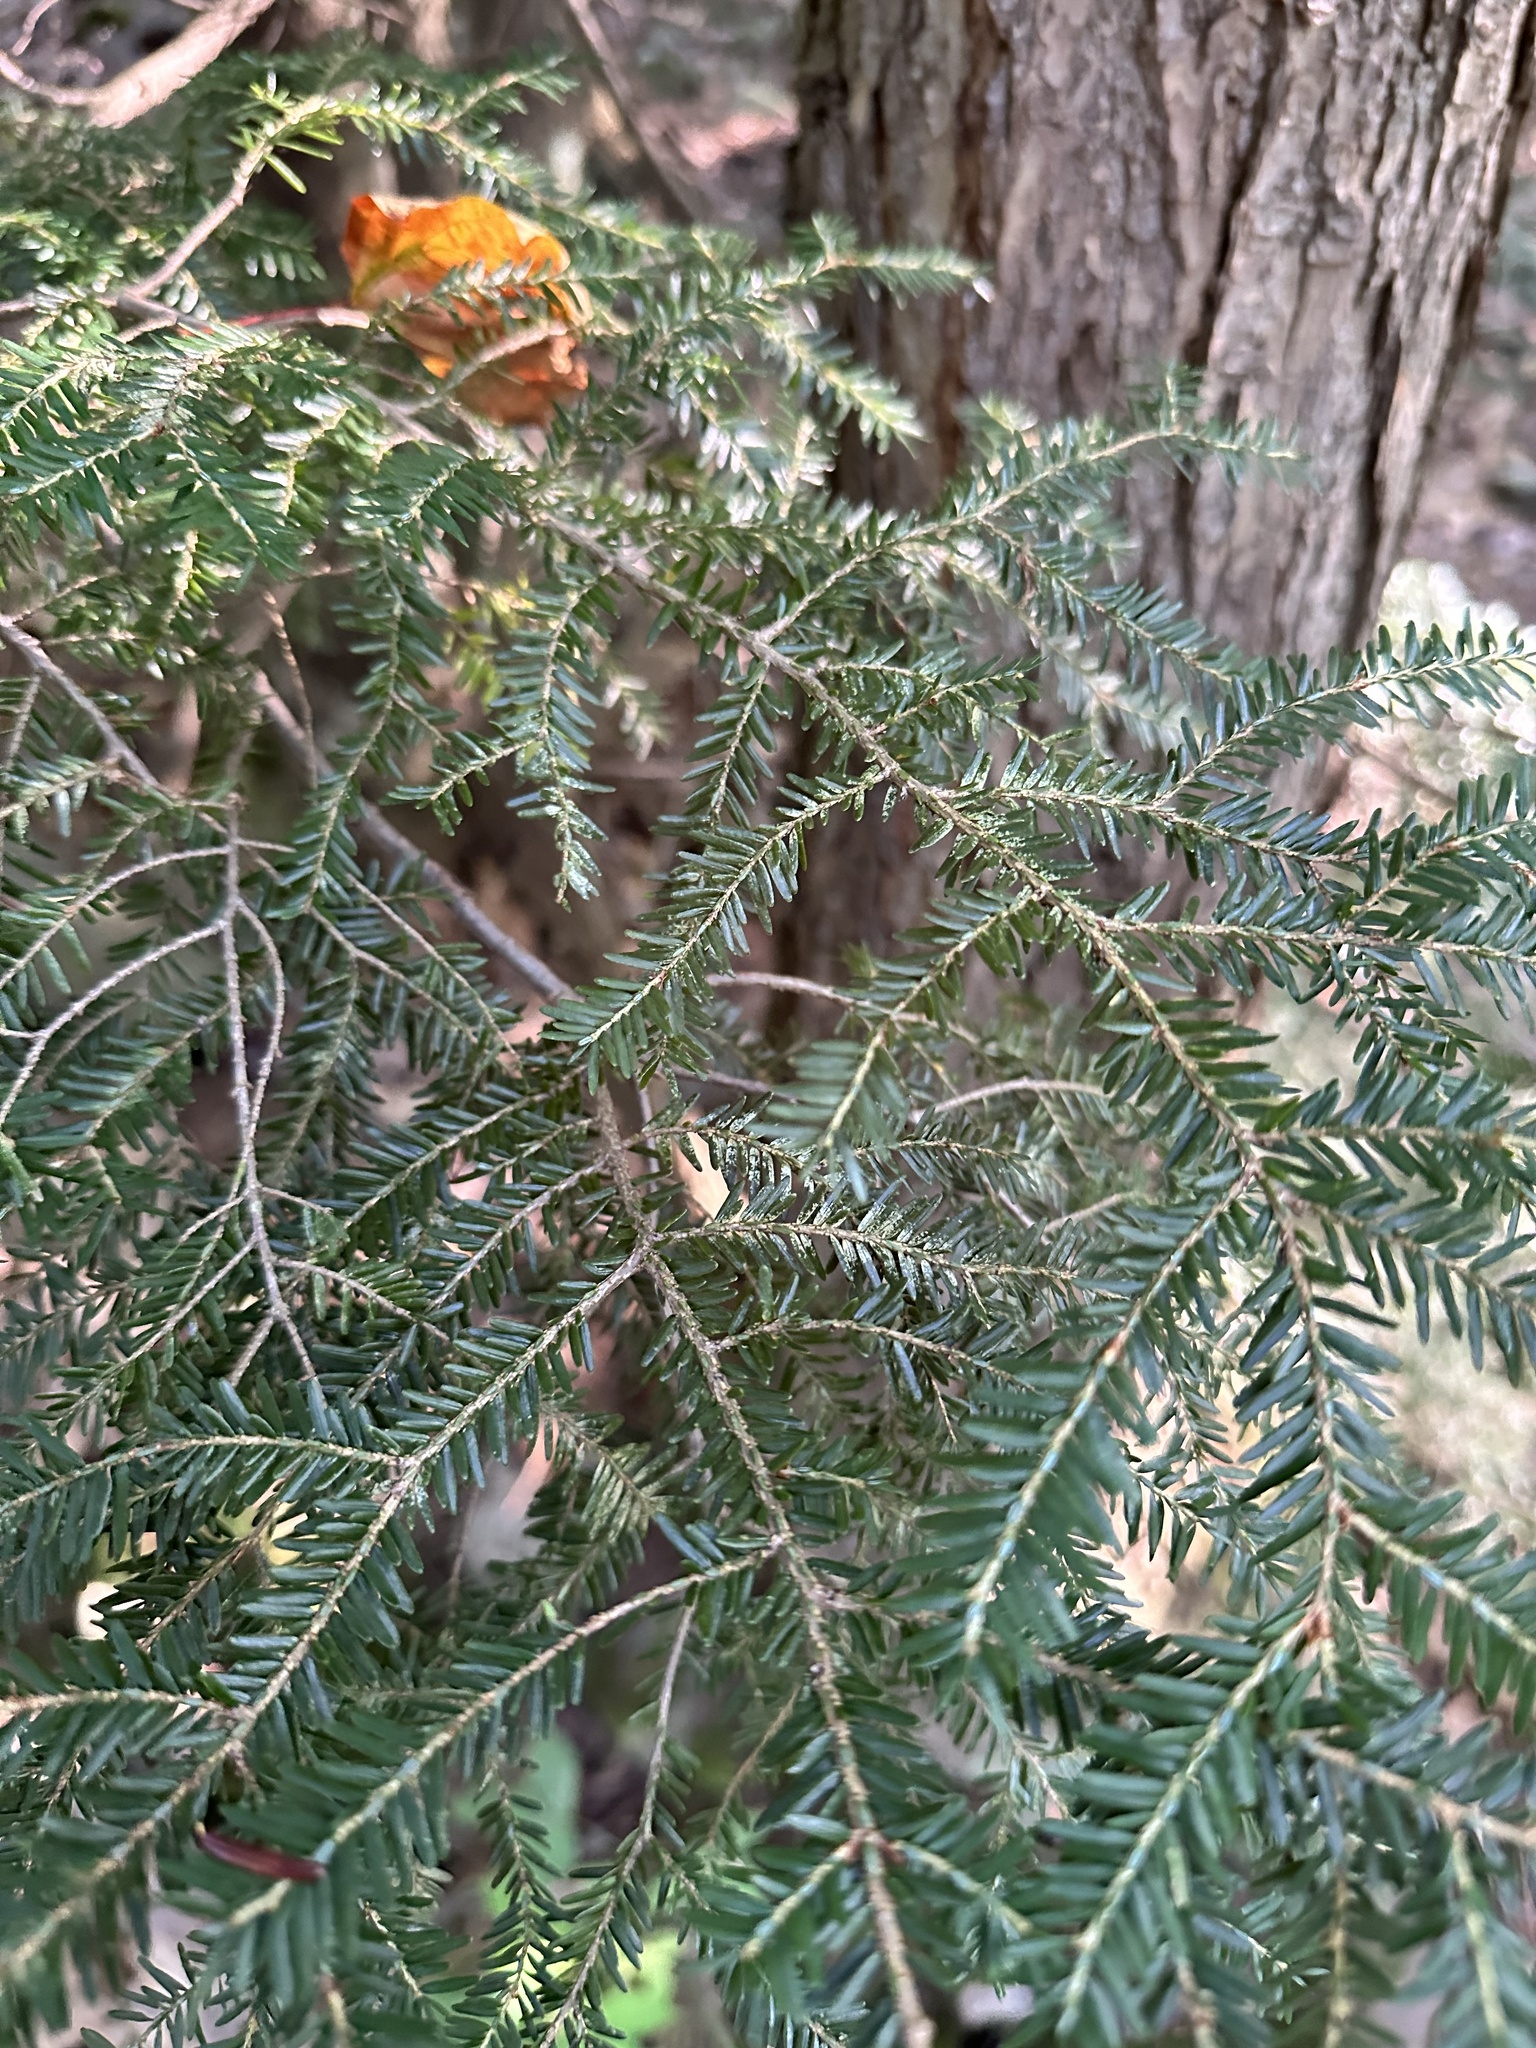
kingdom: Plantae
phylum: Tracheophyta
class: Pinopsida
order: Pinales
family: Pinaceae
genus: Tsuga
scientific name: Tsuga canadensis
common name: Eastern hemlock
